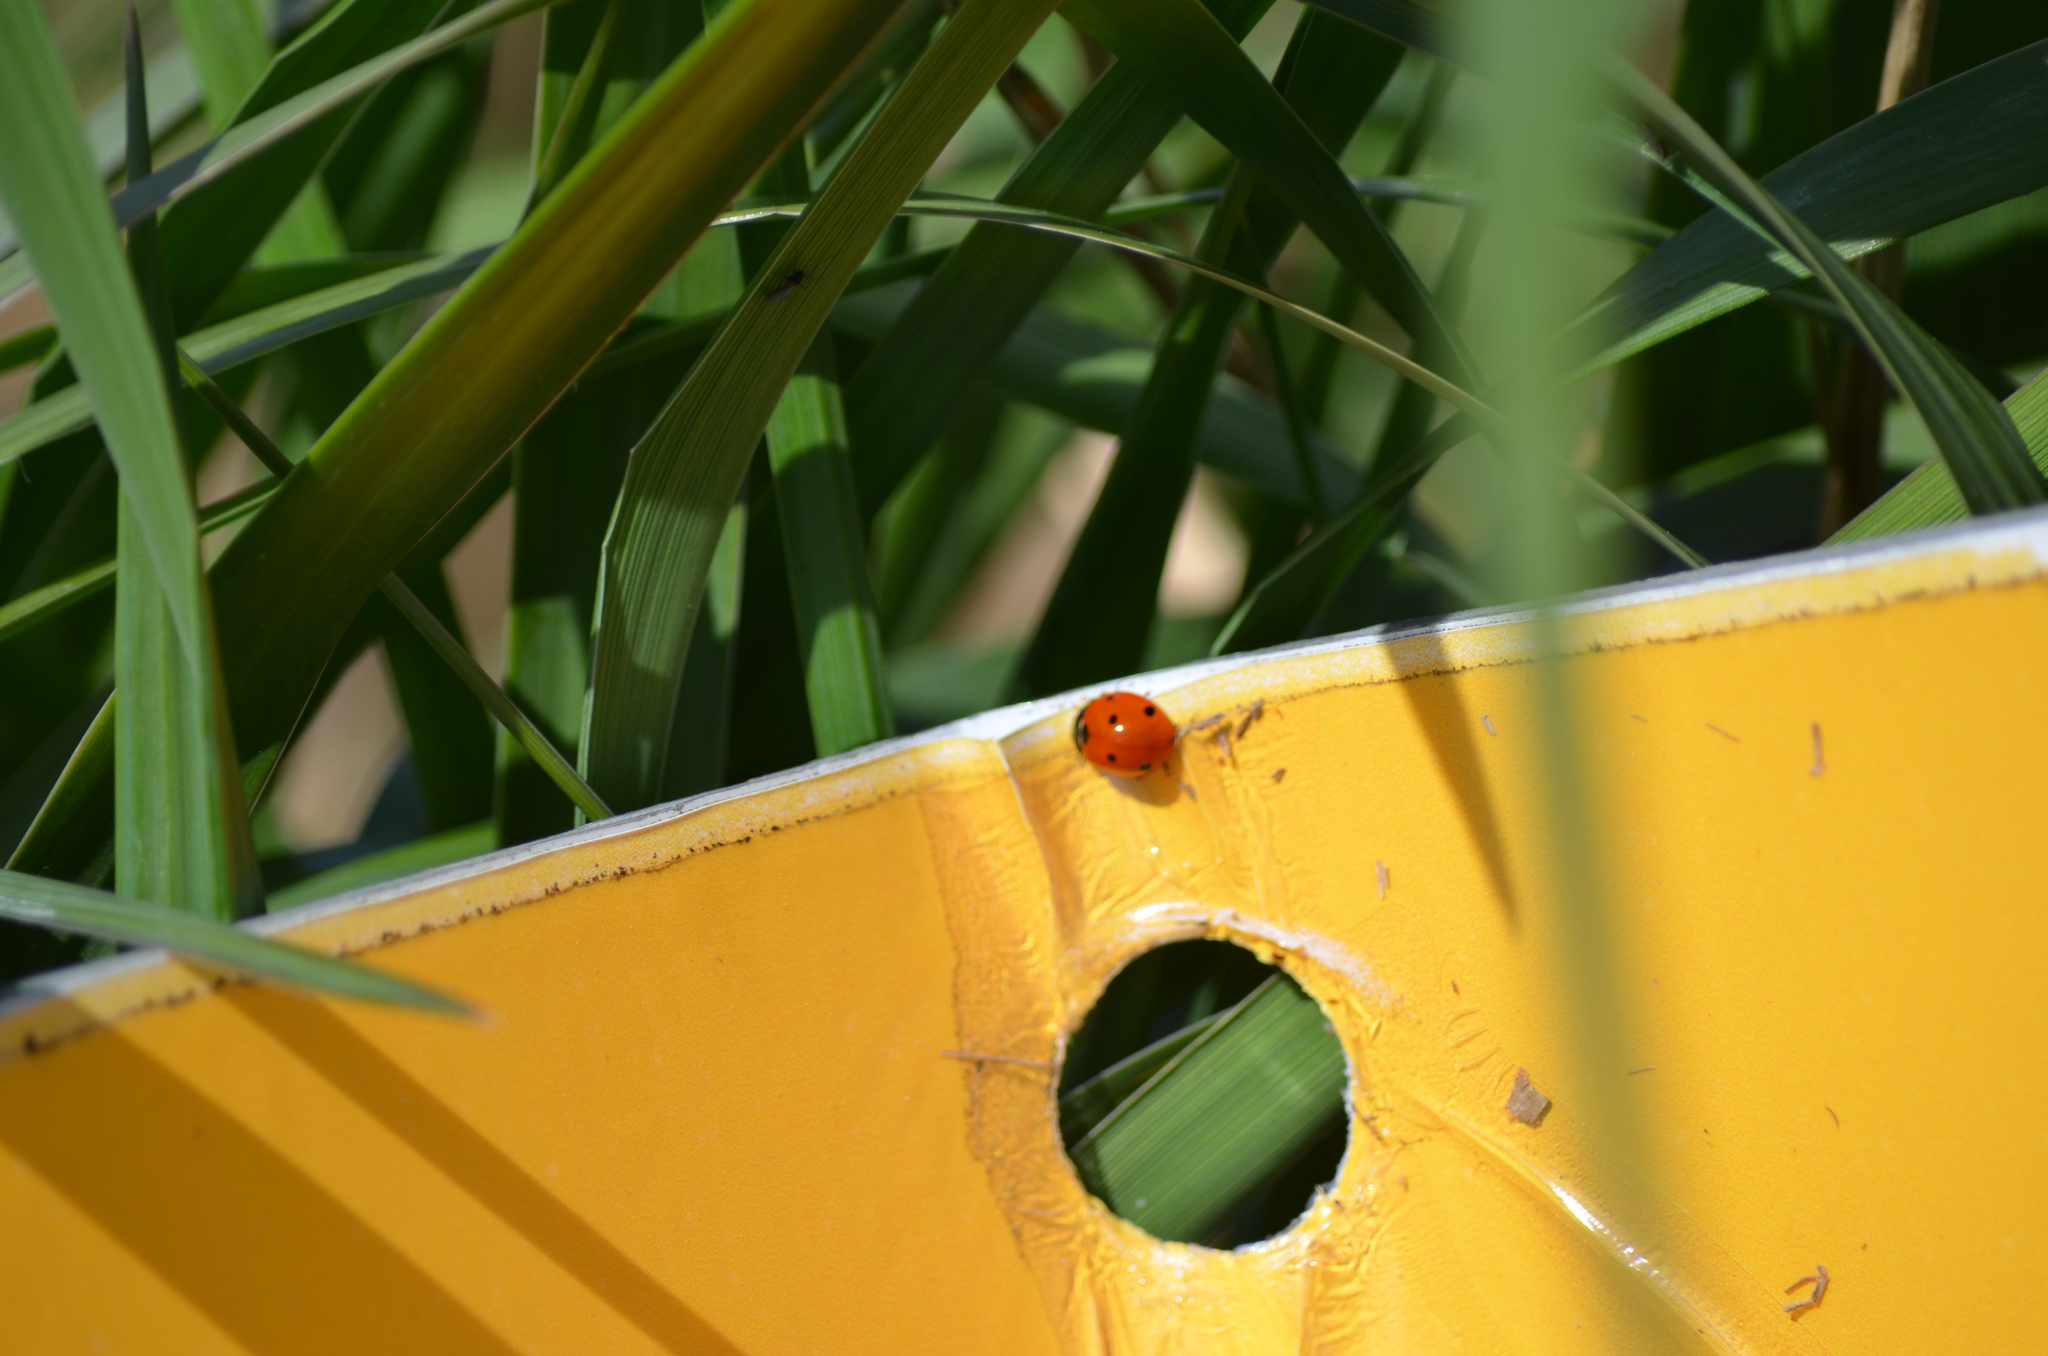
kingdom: Animalia
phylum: Arthropoda
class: Insecta
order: Coleoptera
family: Coccinellidae
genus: Coccinella
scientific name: Coccinella septempunctata
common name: Sevenspotted lady beetle
